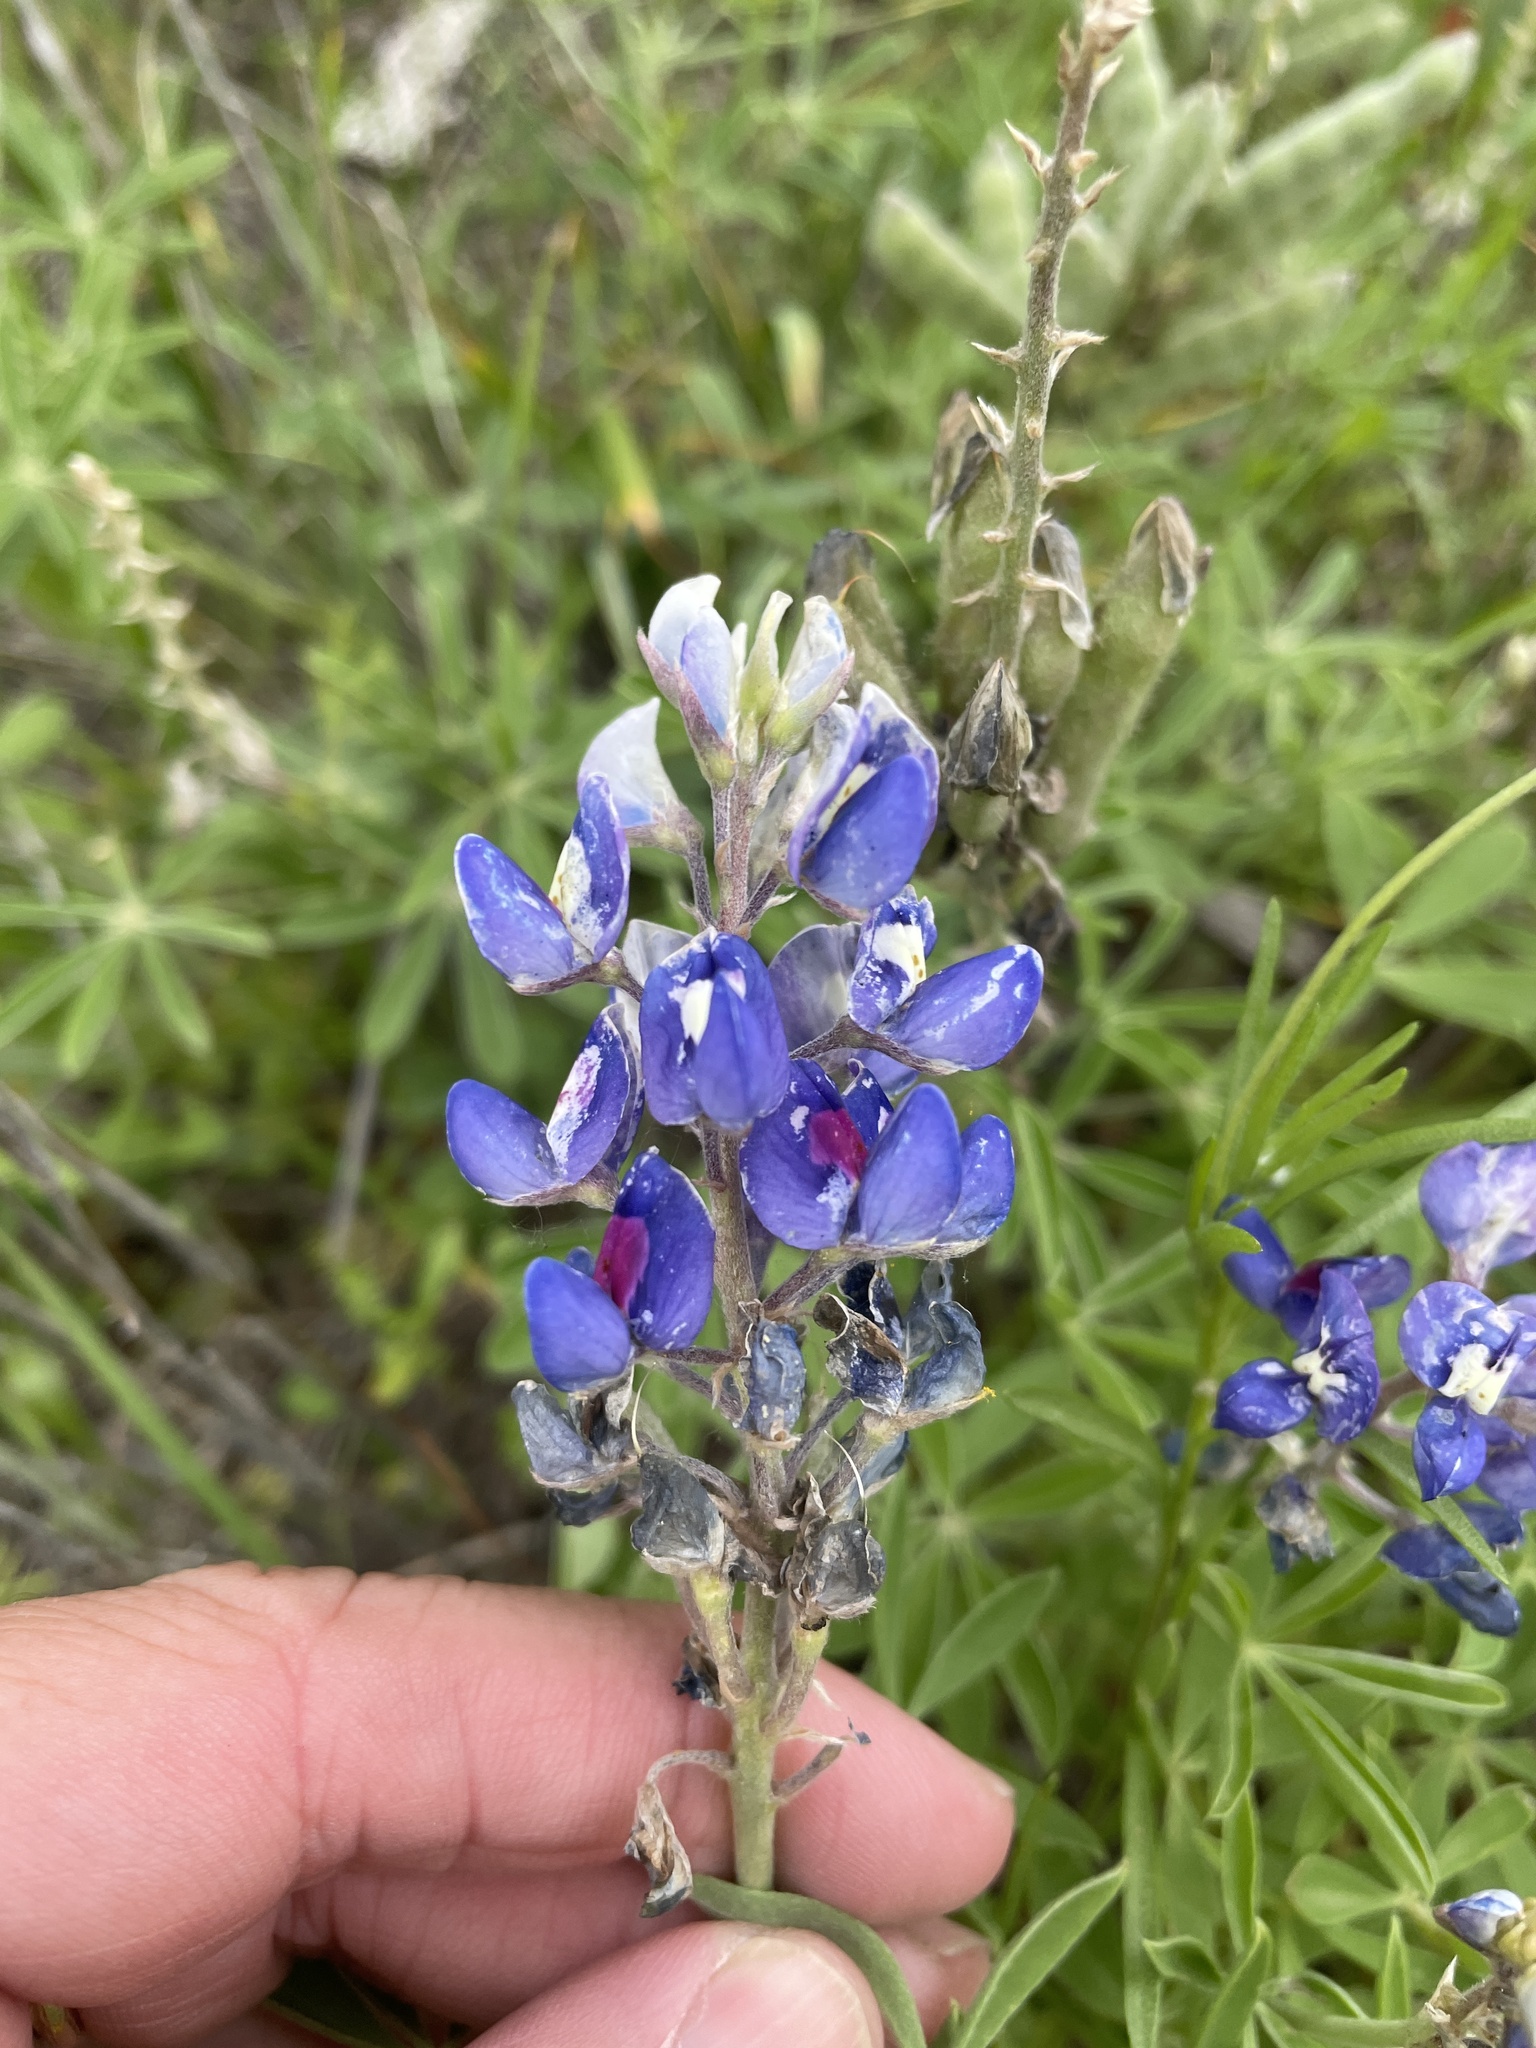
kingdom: Plantae
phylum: Tracheophyta
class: Magnoliopsida
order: Fabales
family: Fabaceae
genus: Lupinus
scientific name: Lupinus texensis
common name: Texas bluebonnet
